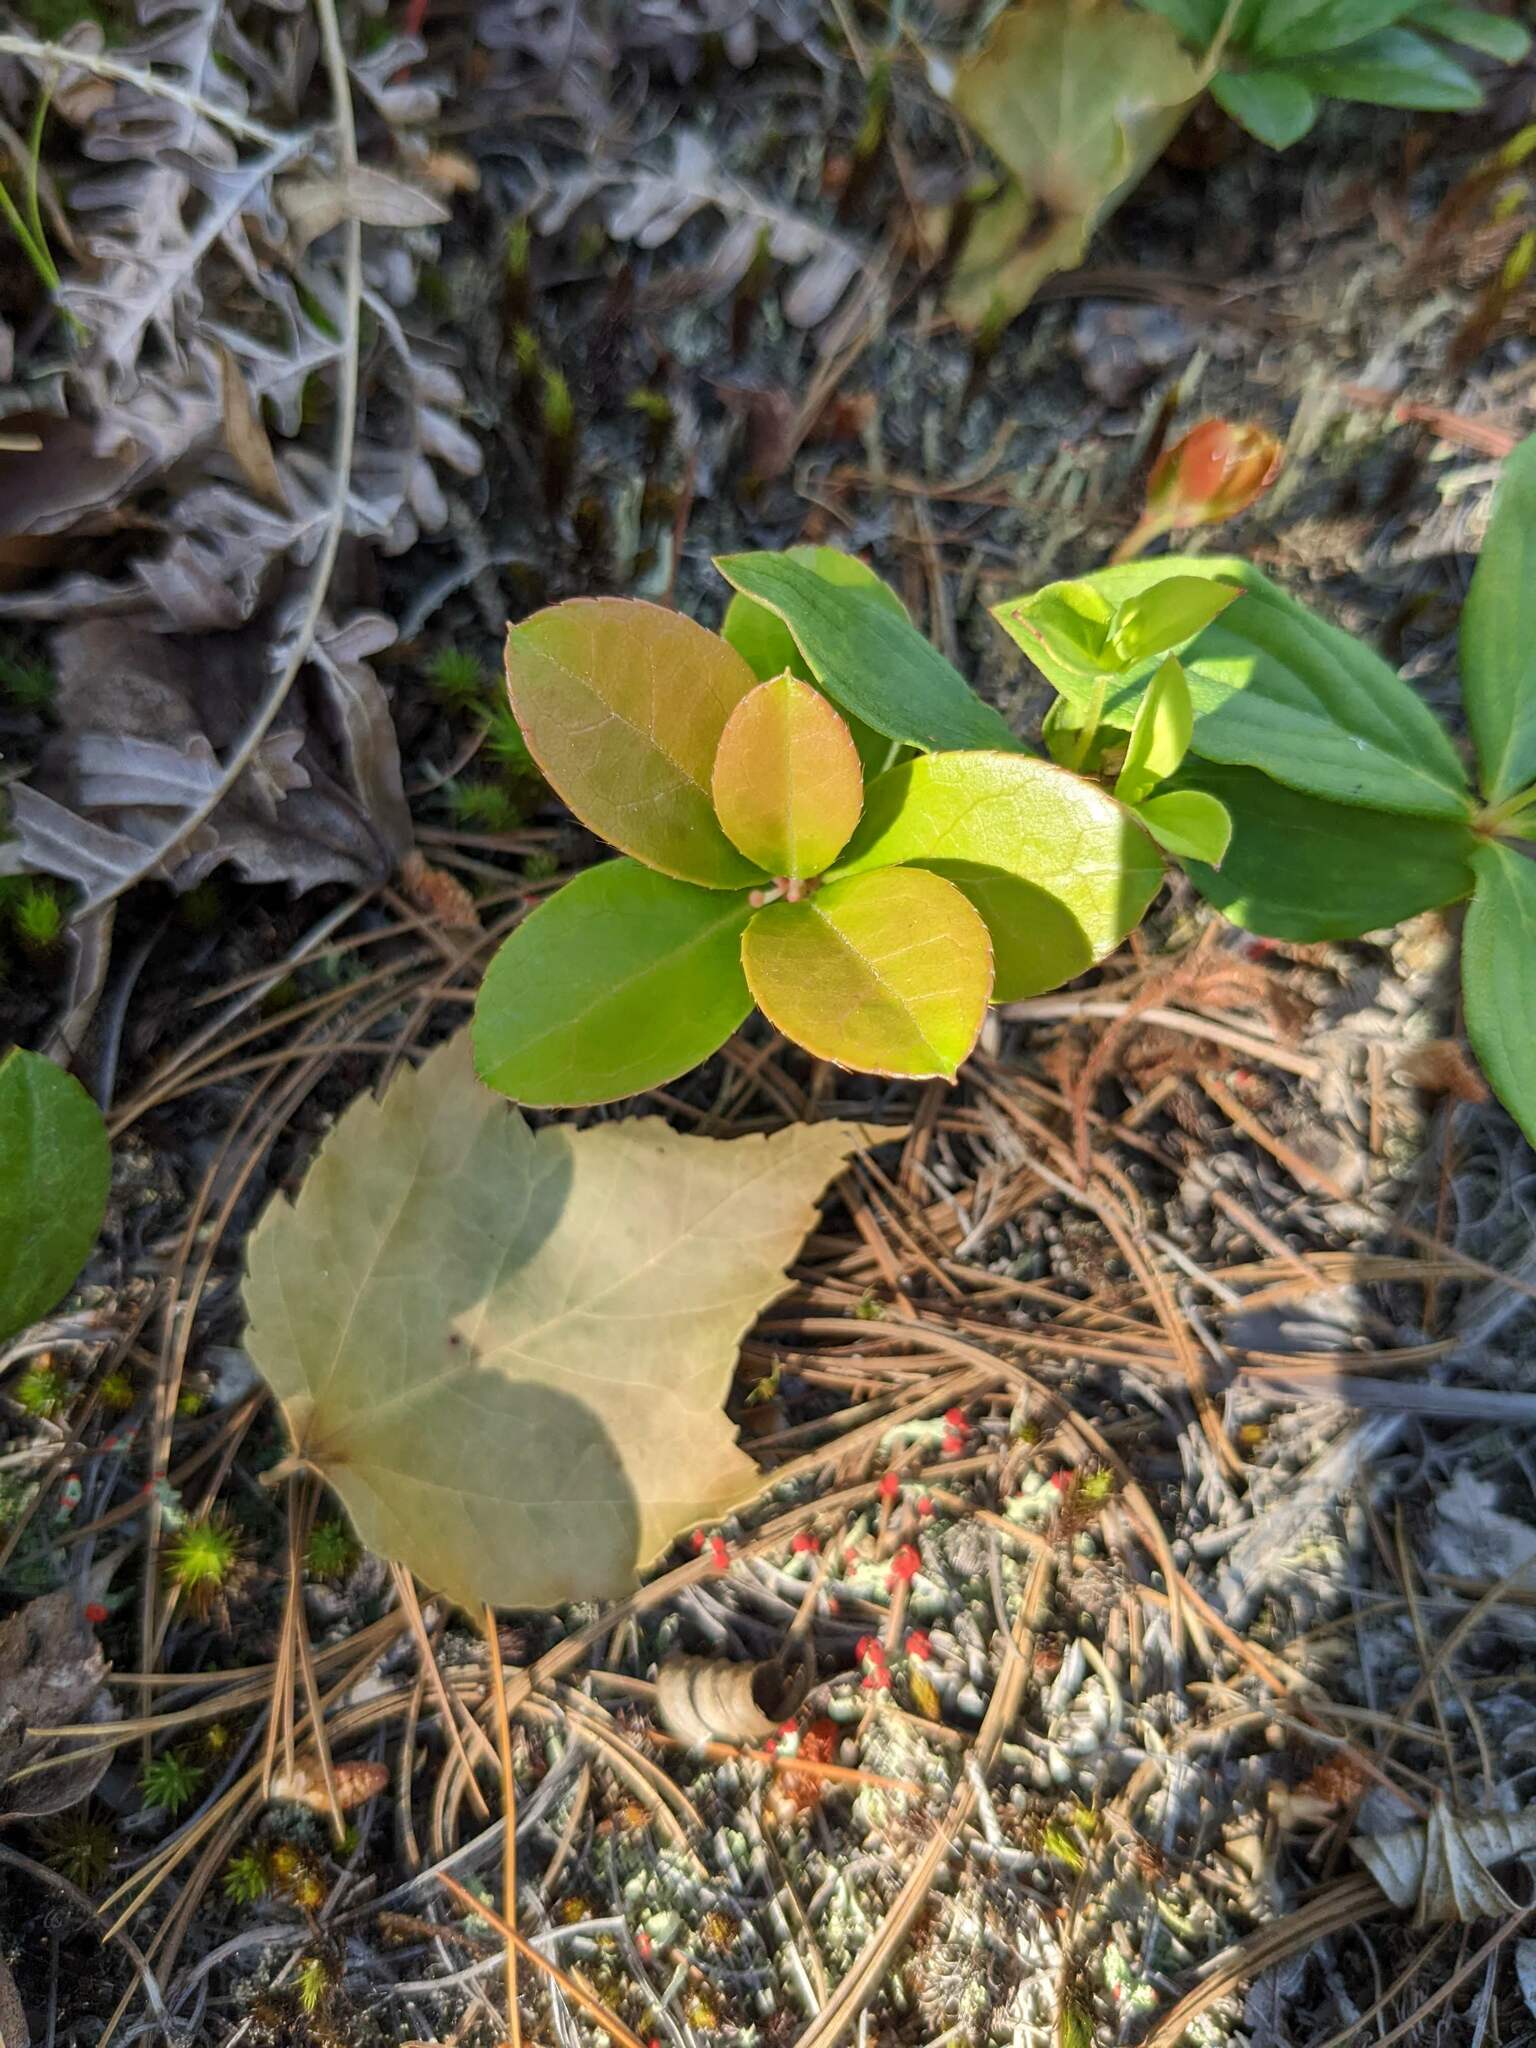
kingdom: Plantae
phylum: Tracheophyta
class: Magnoliopsida
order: Ericales
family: Ericaceae
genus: Gaultheria
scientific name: Gaultheria procumbens
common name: Checkerberry
